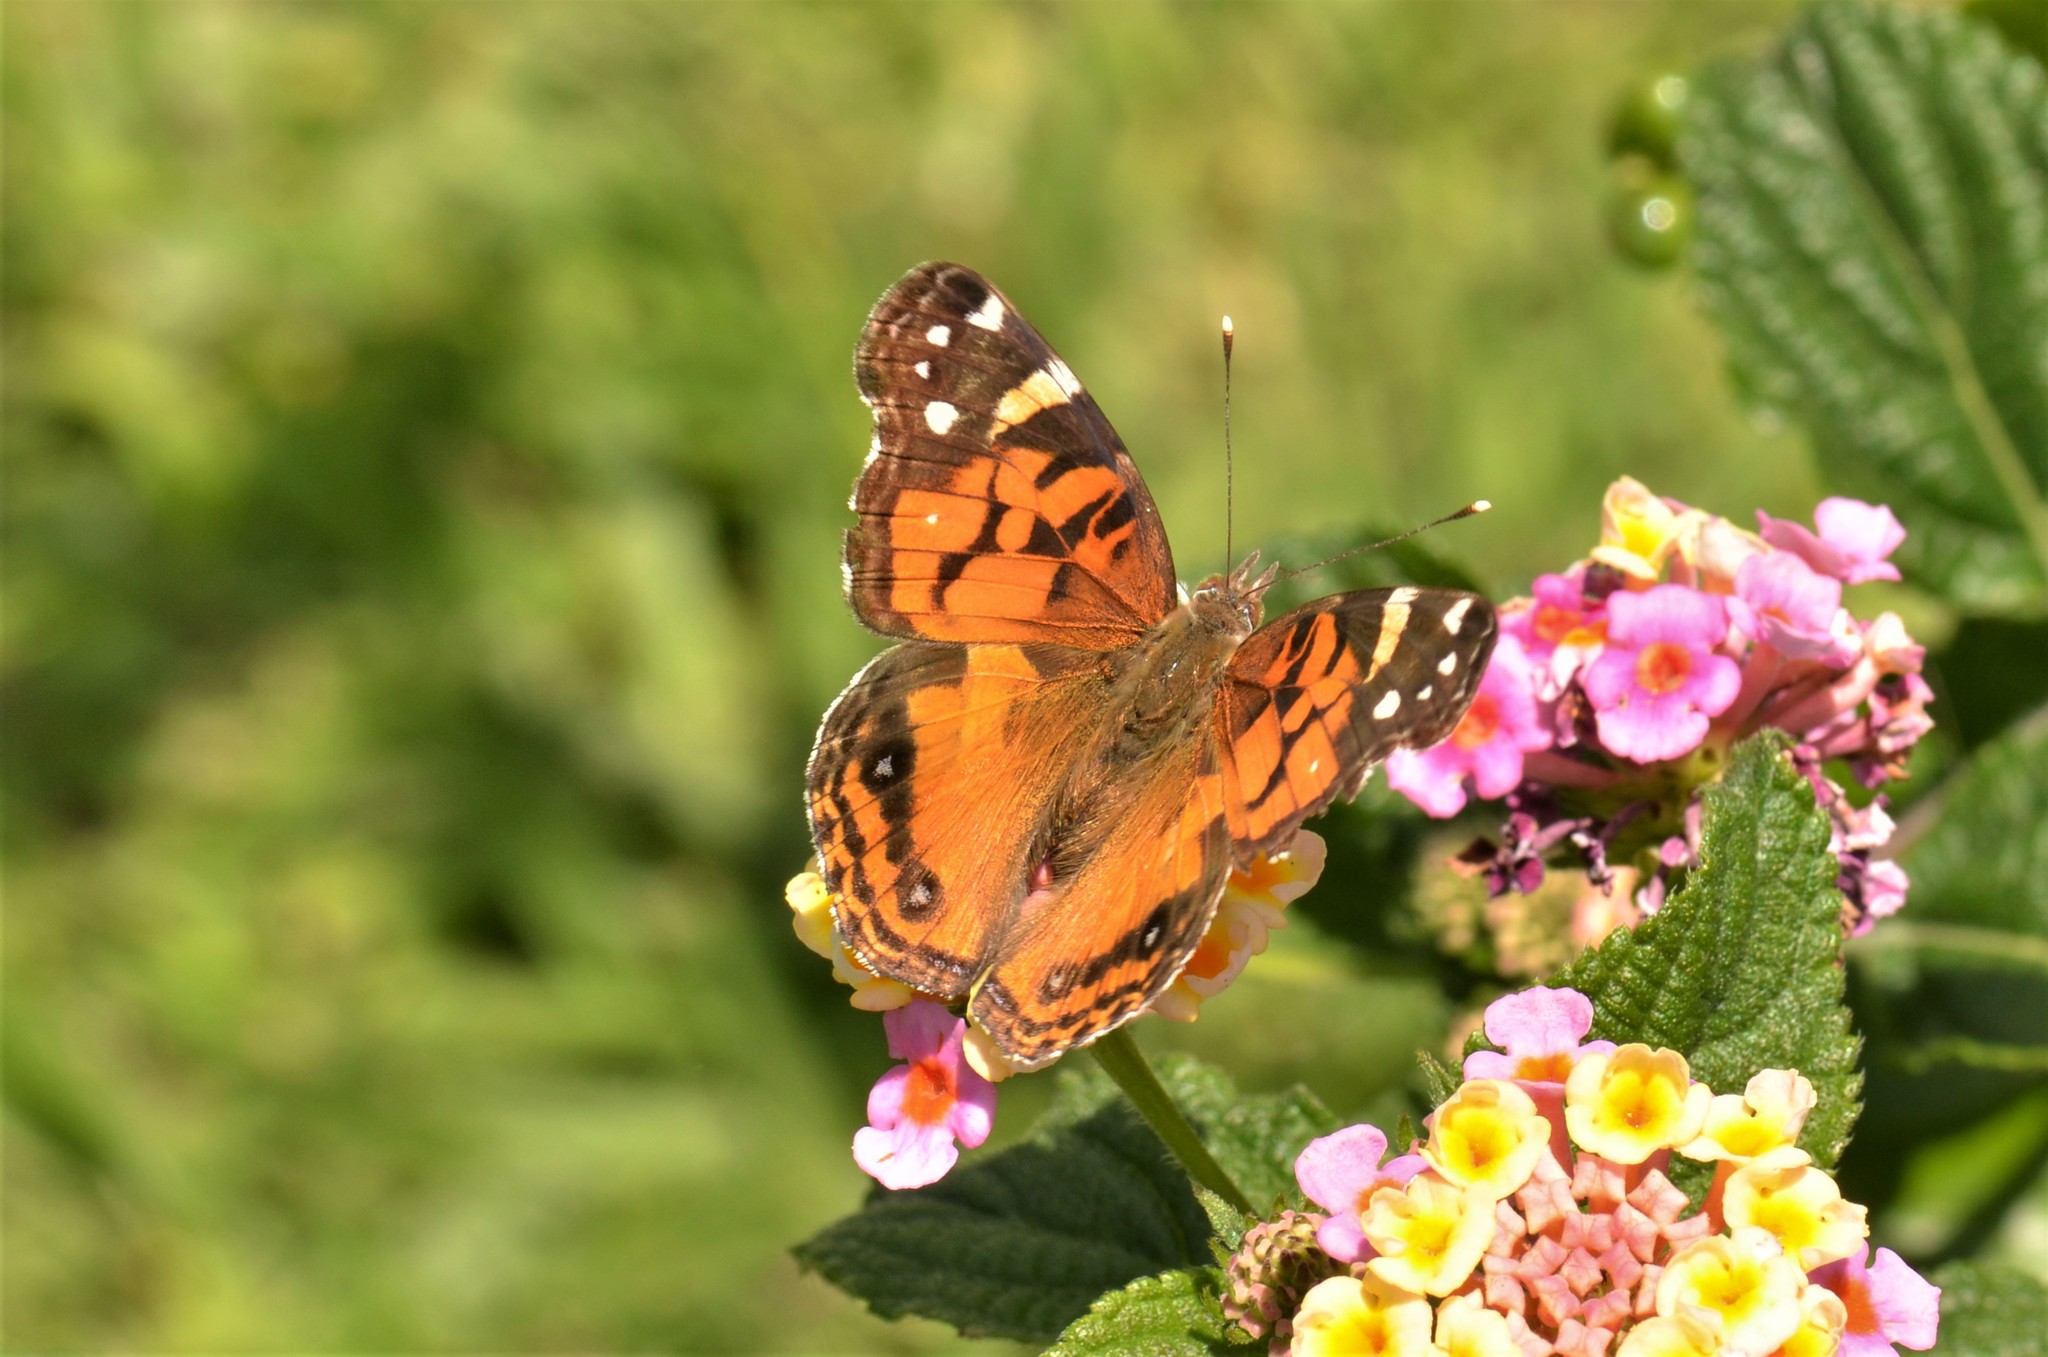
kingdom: Animalia
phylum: Arthropoda
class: Insecta
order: Lepidoptera
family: Nymphalidae
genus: Vanessa
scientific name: Vanessa virginiensis
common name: American lady
